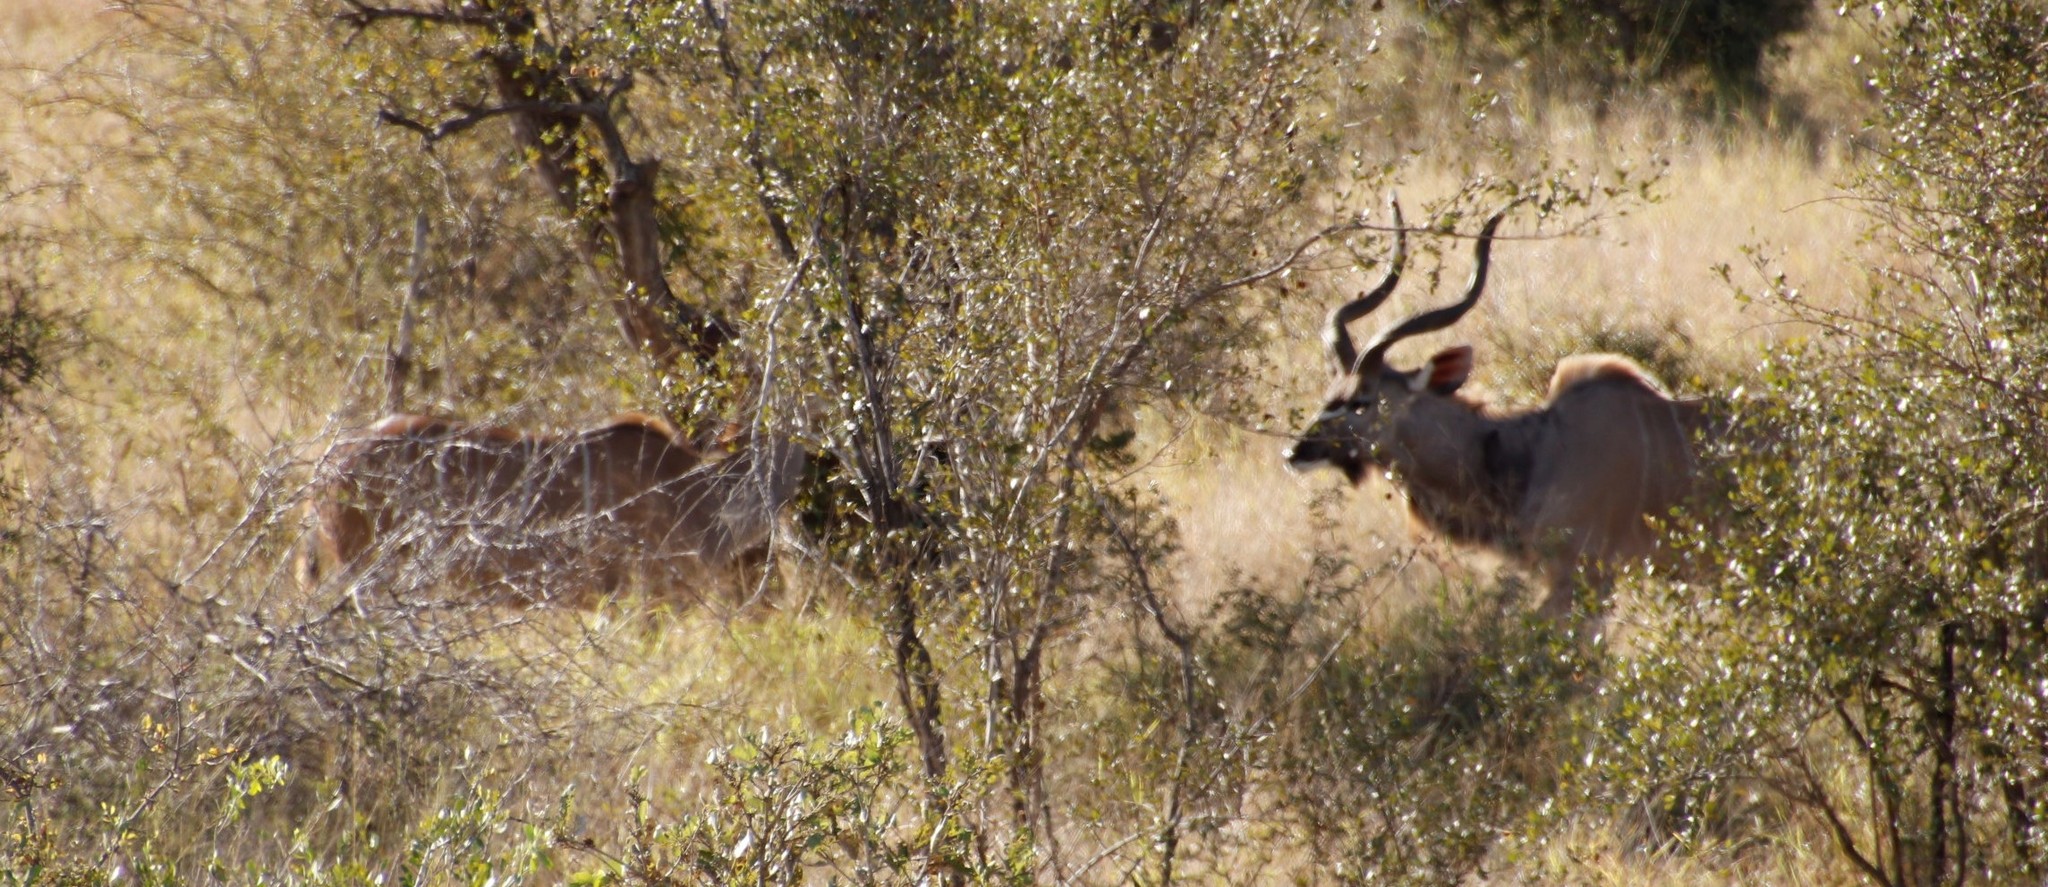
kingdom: Animalia
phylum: Chordata
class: Mammalia
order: Artiodactyla
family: Bovidae
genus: Tragelaphus
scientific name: Tragelaphus strepsiceros
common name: Greater kudu
